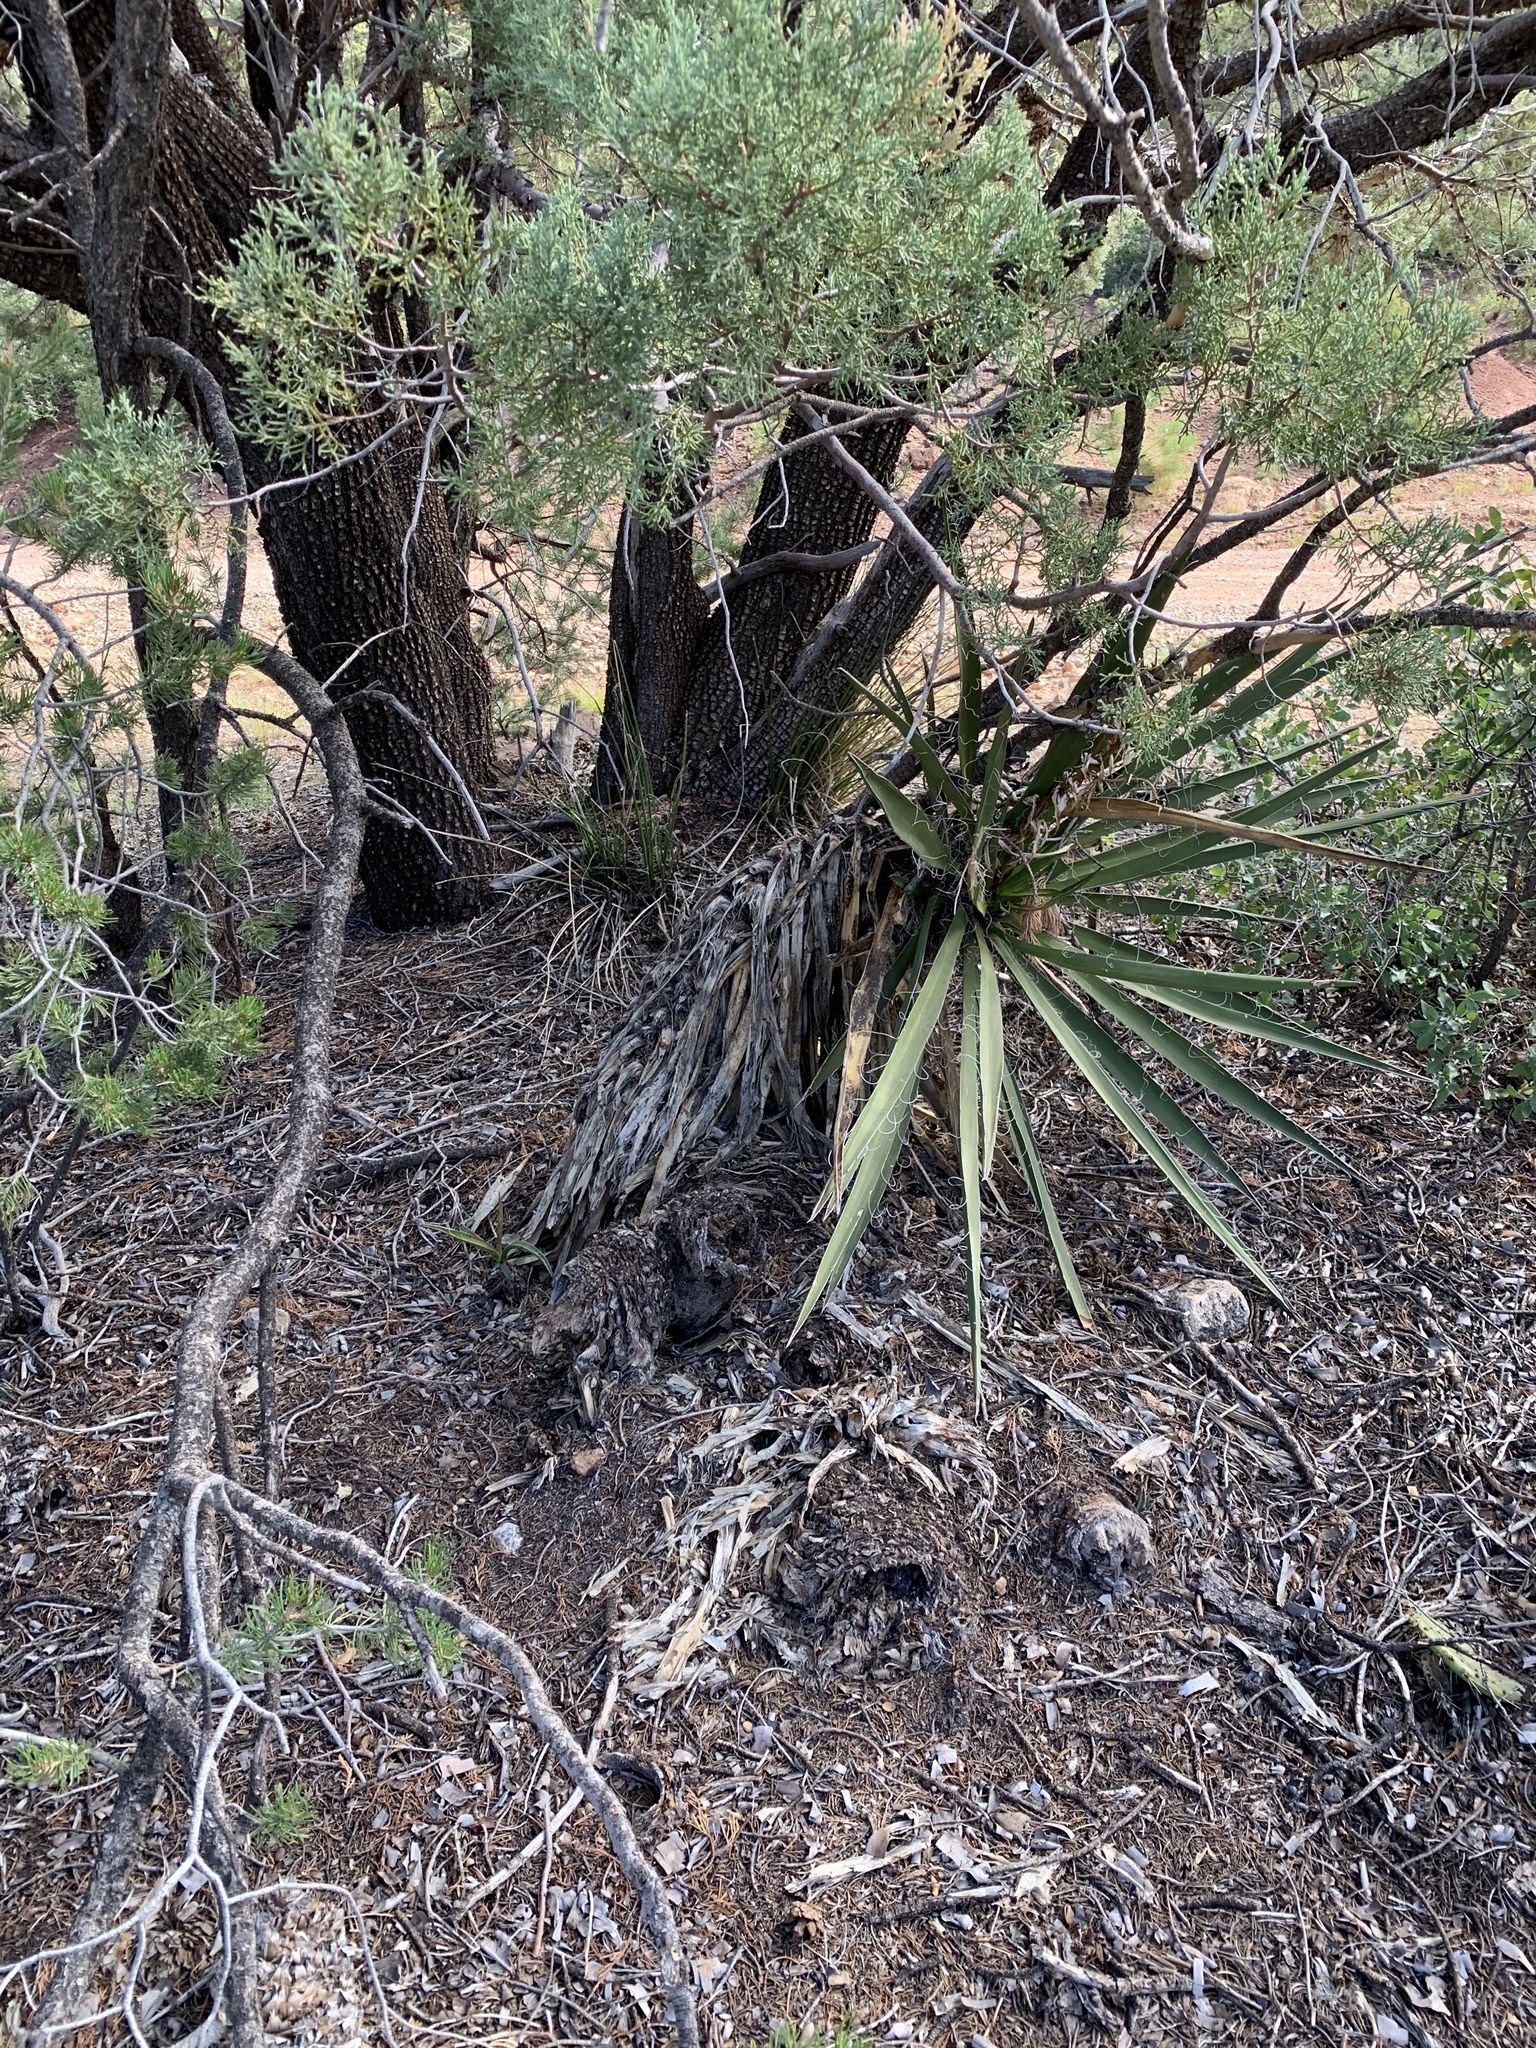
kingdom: Plantae
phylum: Tracheophyta
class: Liliopsida
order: Asparagales
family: Asparagaceae
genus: Yucca
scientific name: Yucca baccata
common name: Banana yucca
